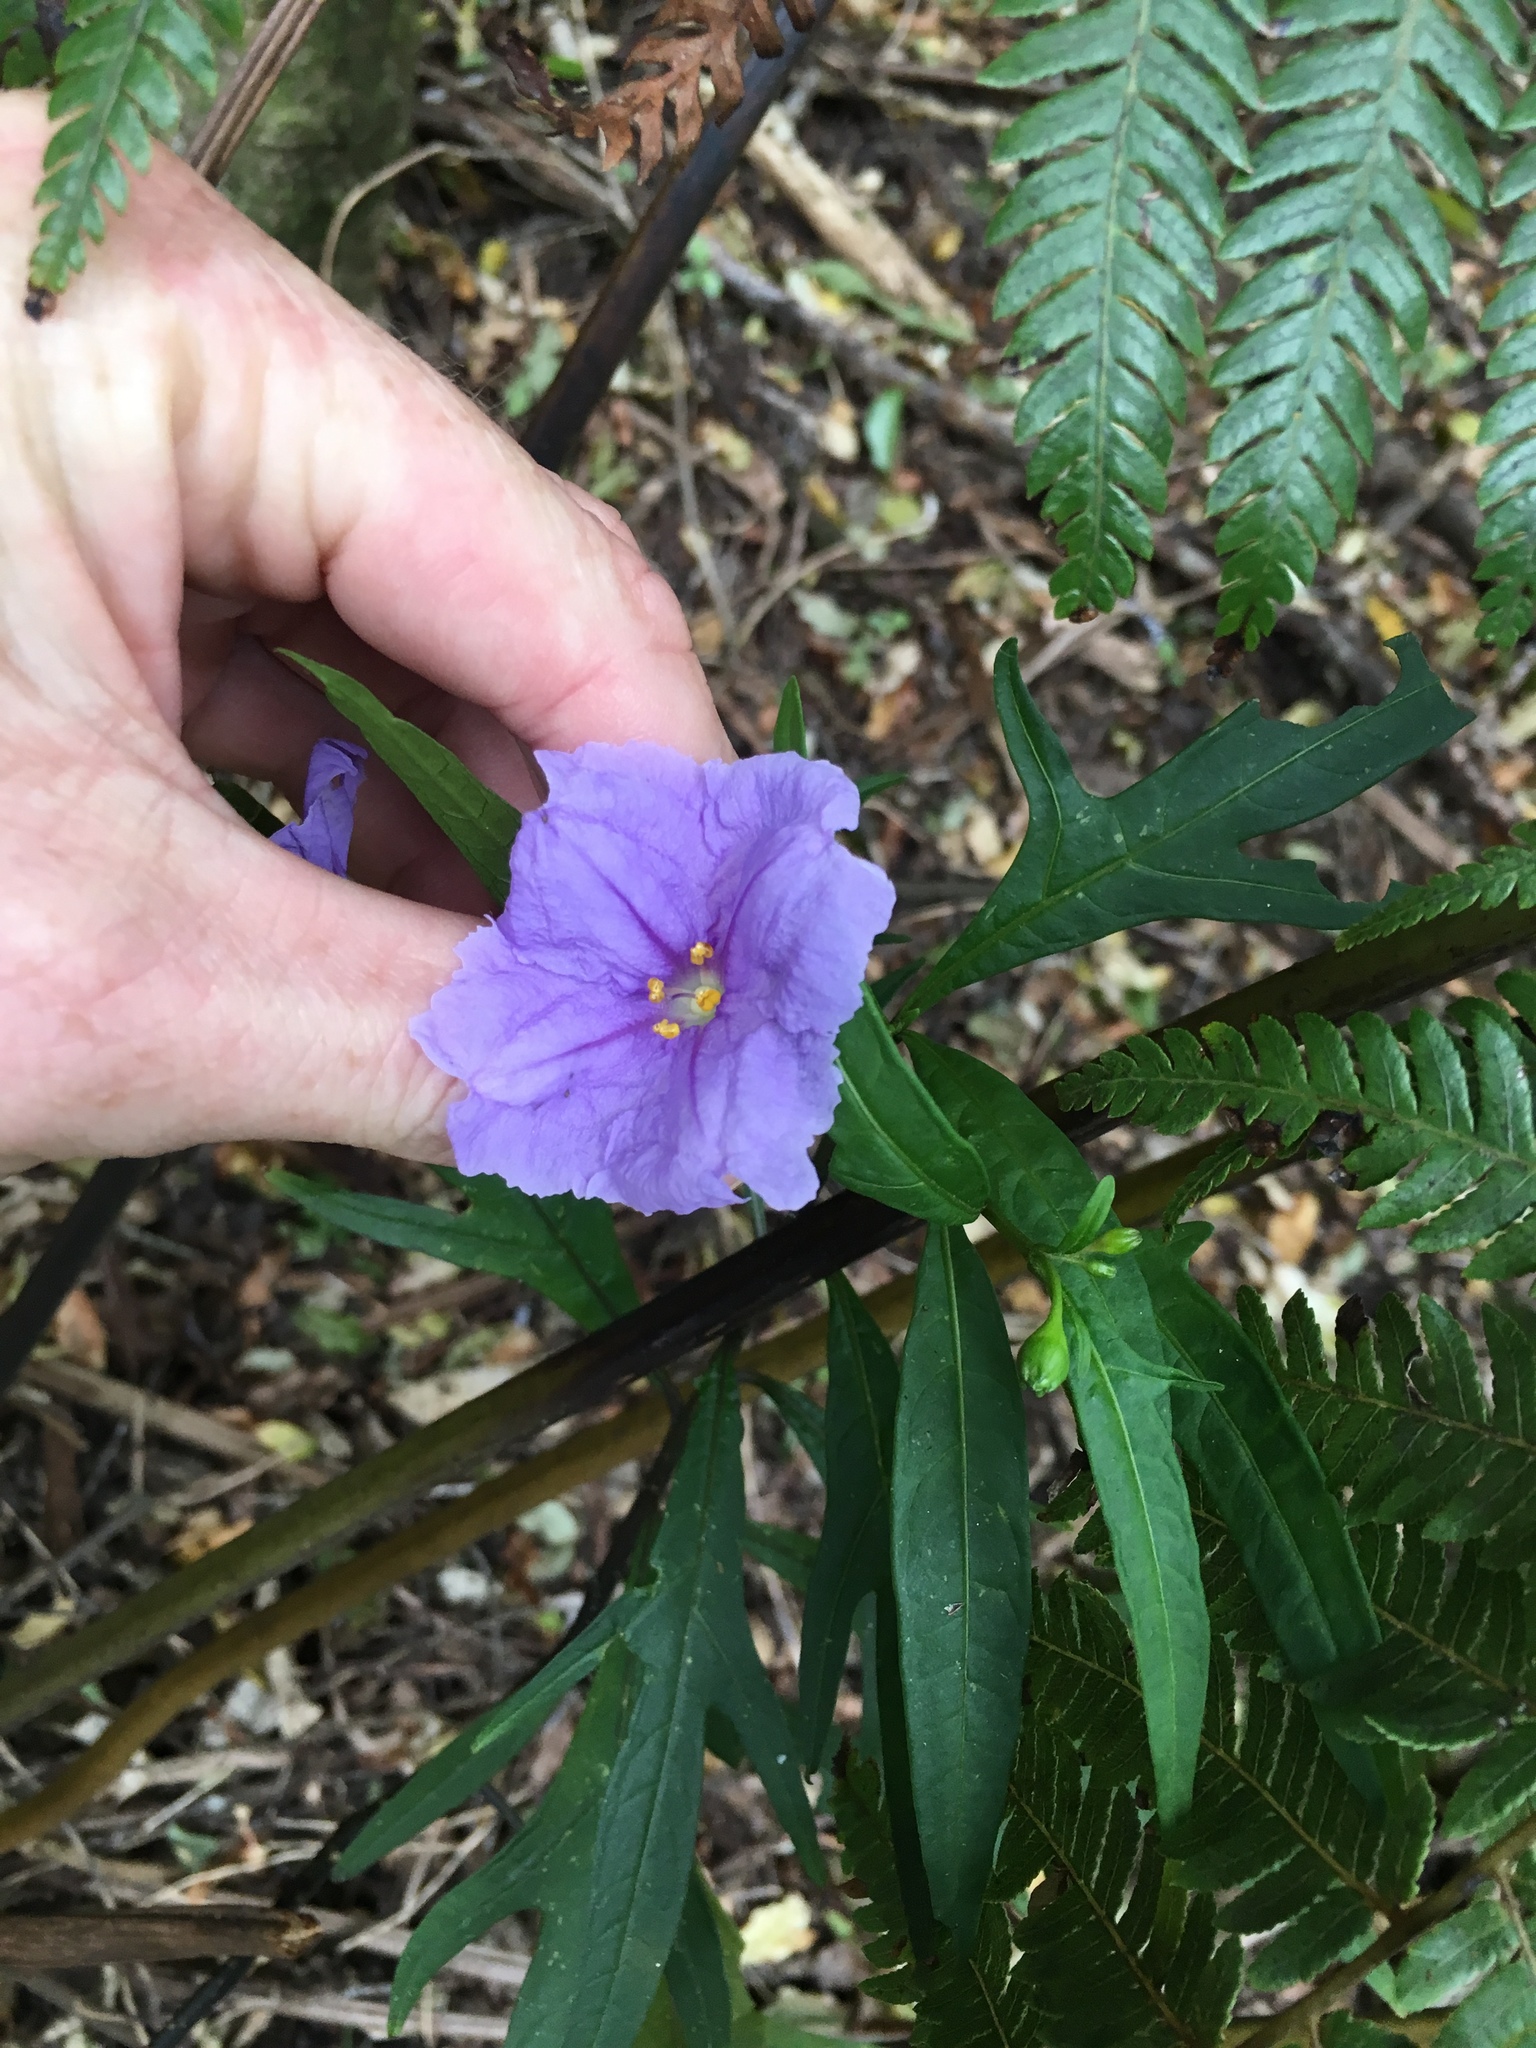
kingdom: Plantae
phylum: Tracheophyta
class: Magnoliopsida
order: Solanales
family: Solanaceae
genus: Solanum
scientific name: Solanum laciniatum
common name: Kangaroo-apple
